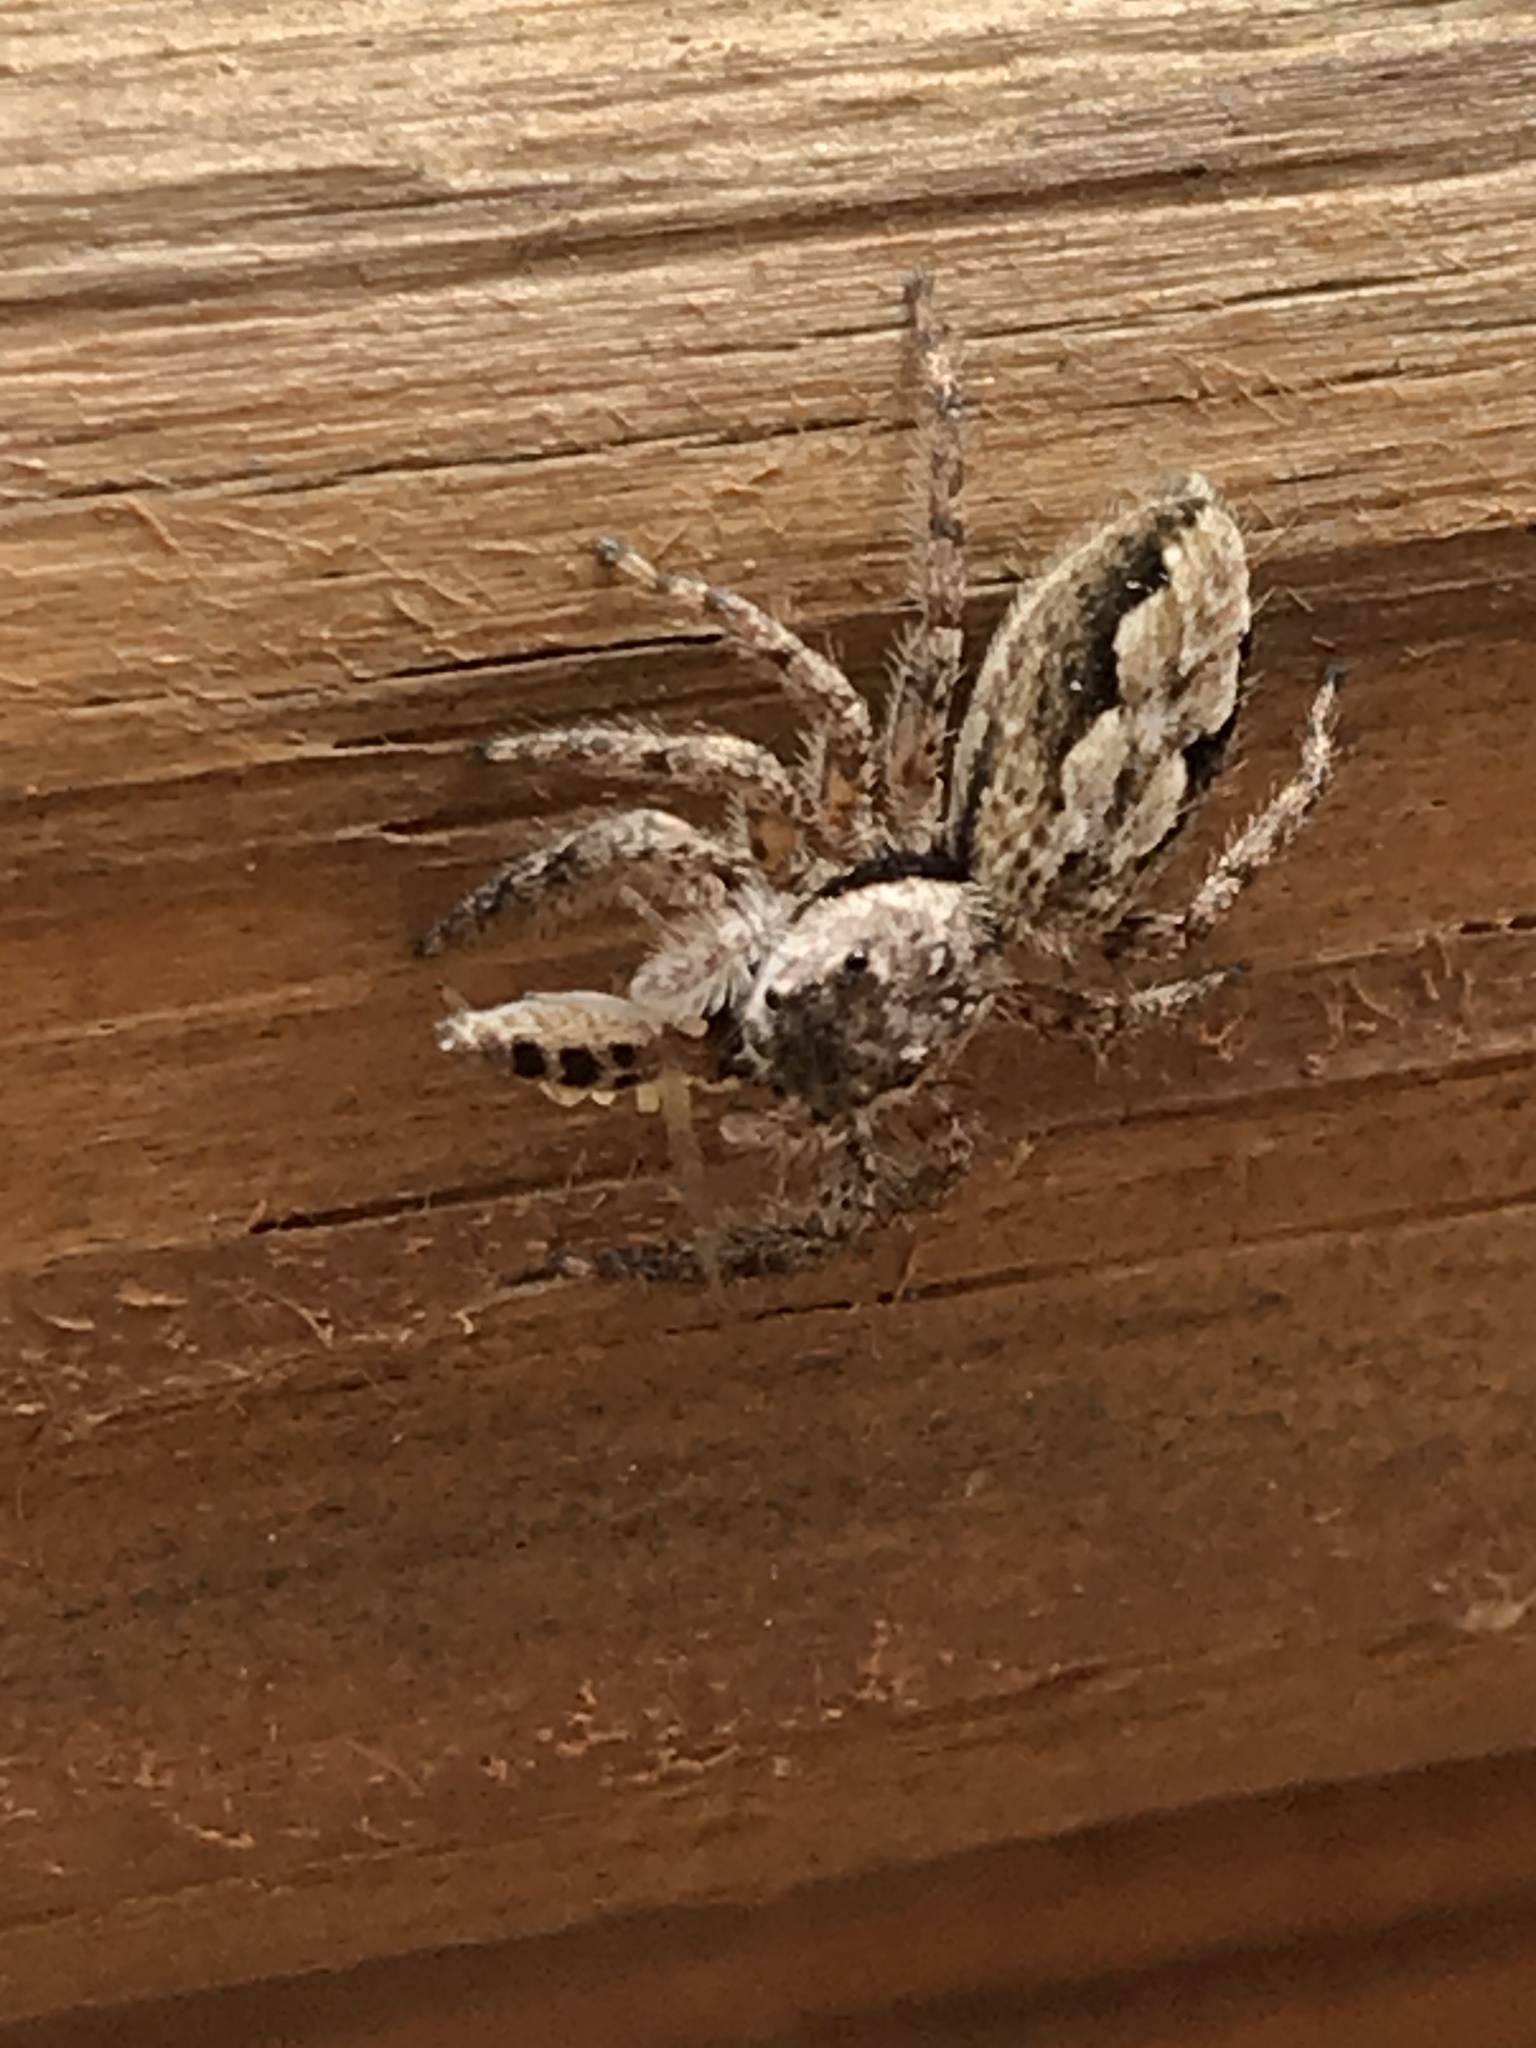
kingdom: Animalia
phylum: Arthropoda
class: Arachnida
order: Araneae
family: Salticidae
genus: Platycryptus
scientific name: Platycryptus undatus
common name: Tan jumping spider
